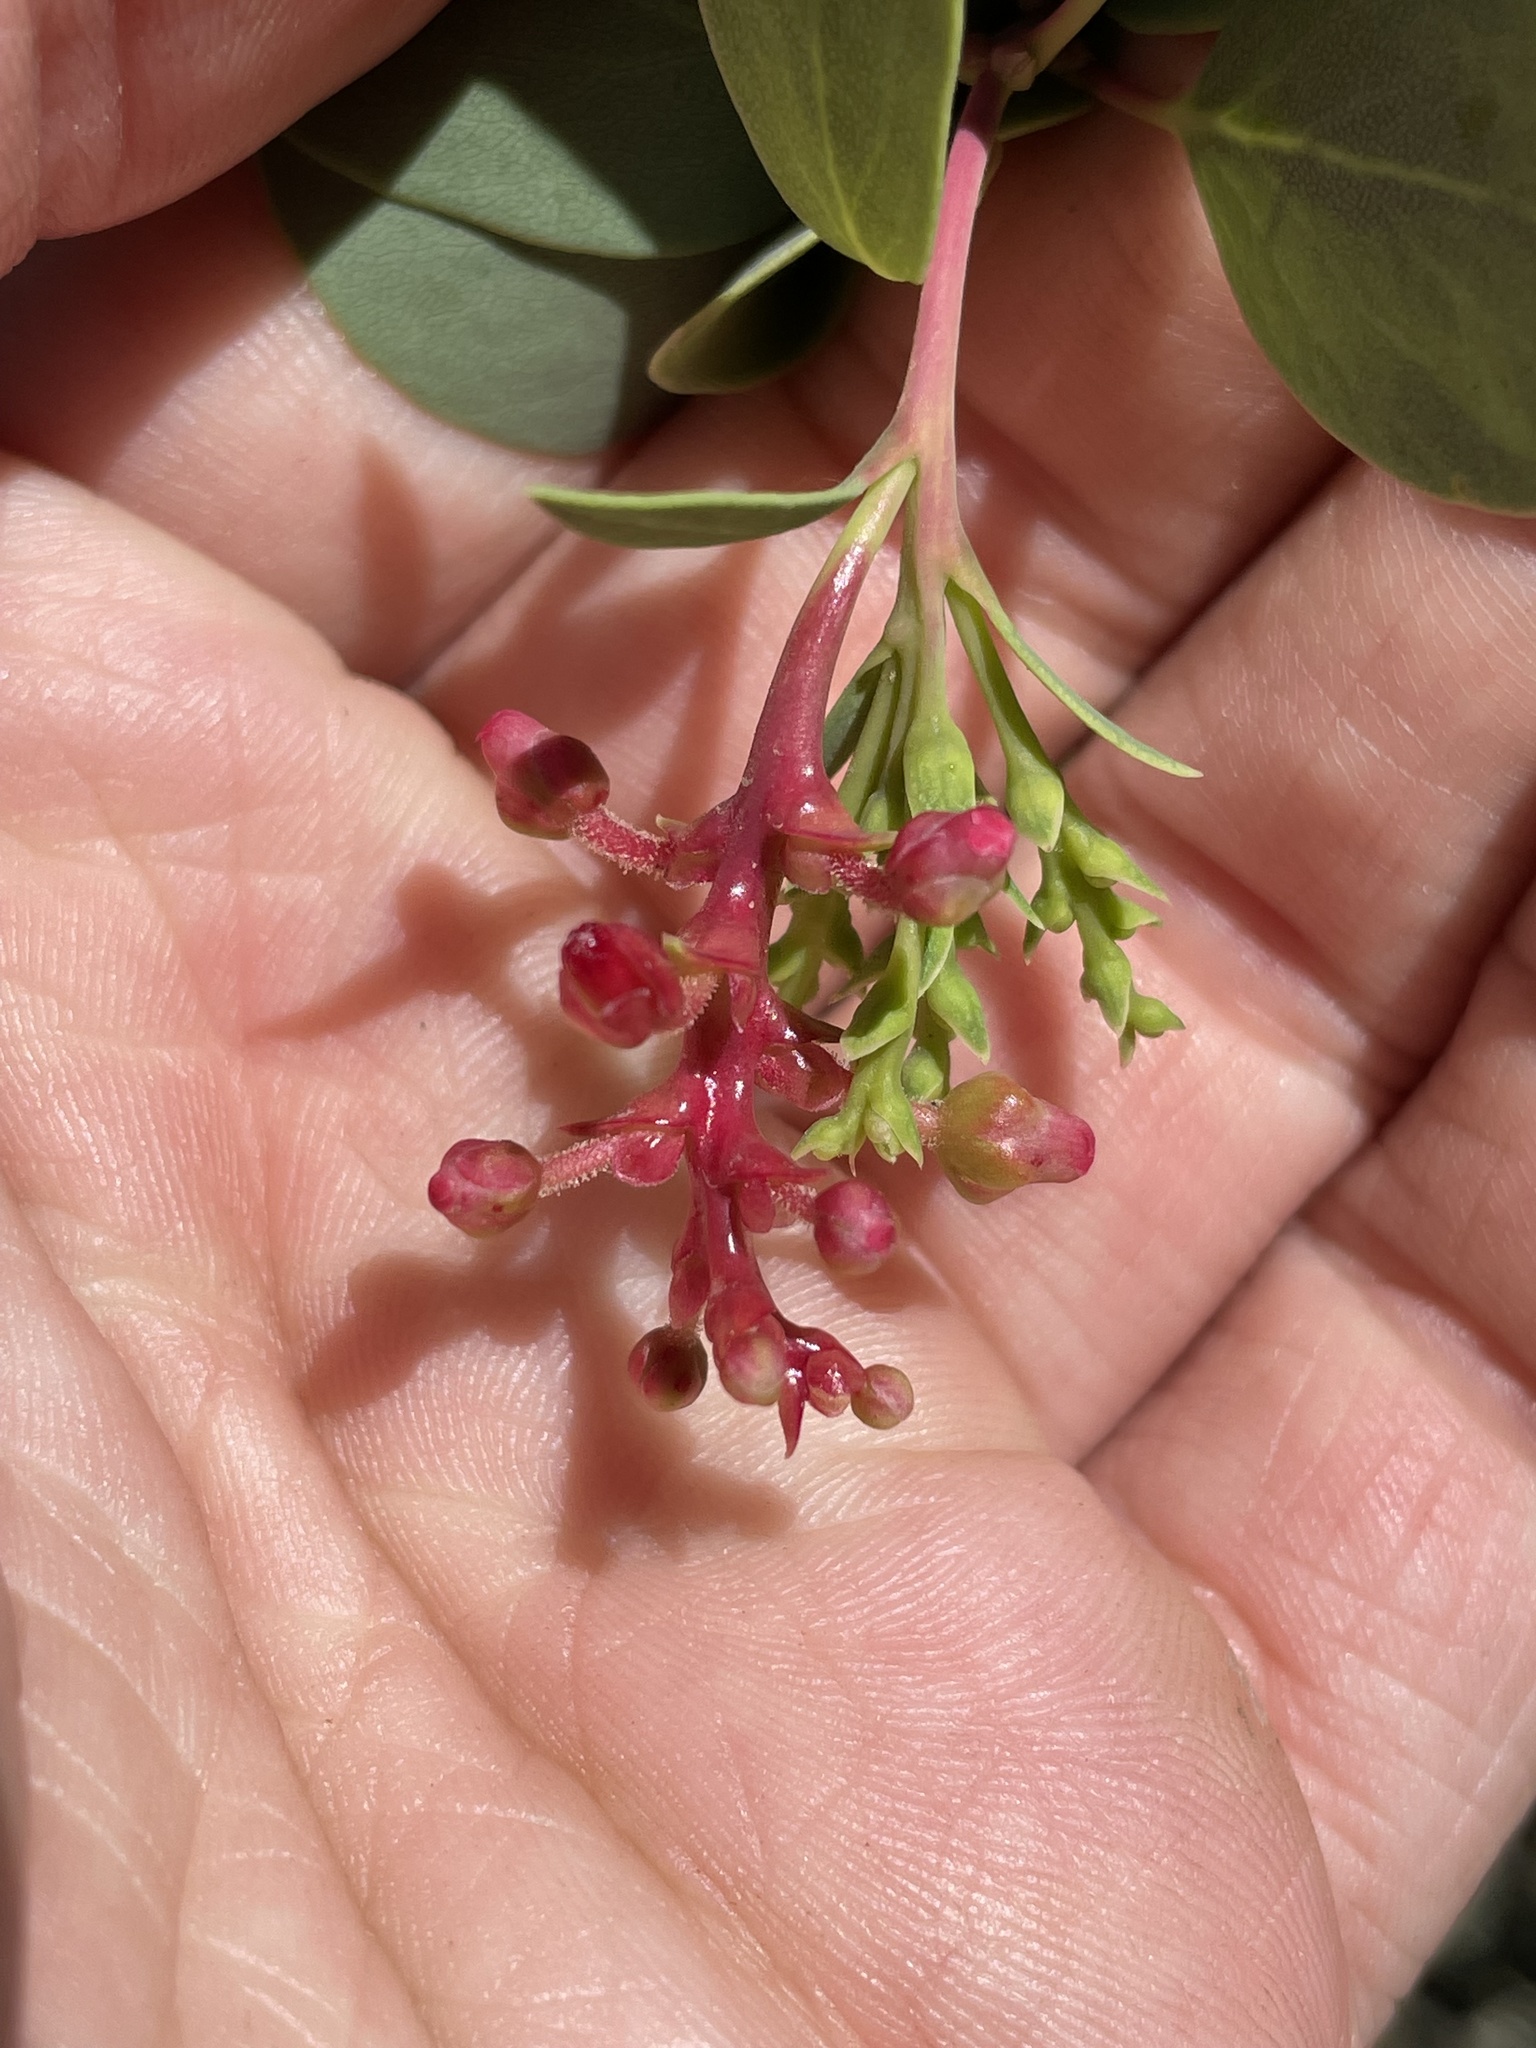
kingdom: Fungi
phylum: Basidiomycota
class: Exobasidiomycetes
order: Exobasidiales
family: Exobasidiaceae
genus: Exobasidium
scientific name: Exobasidium
